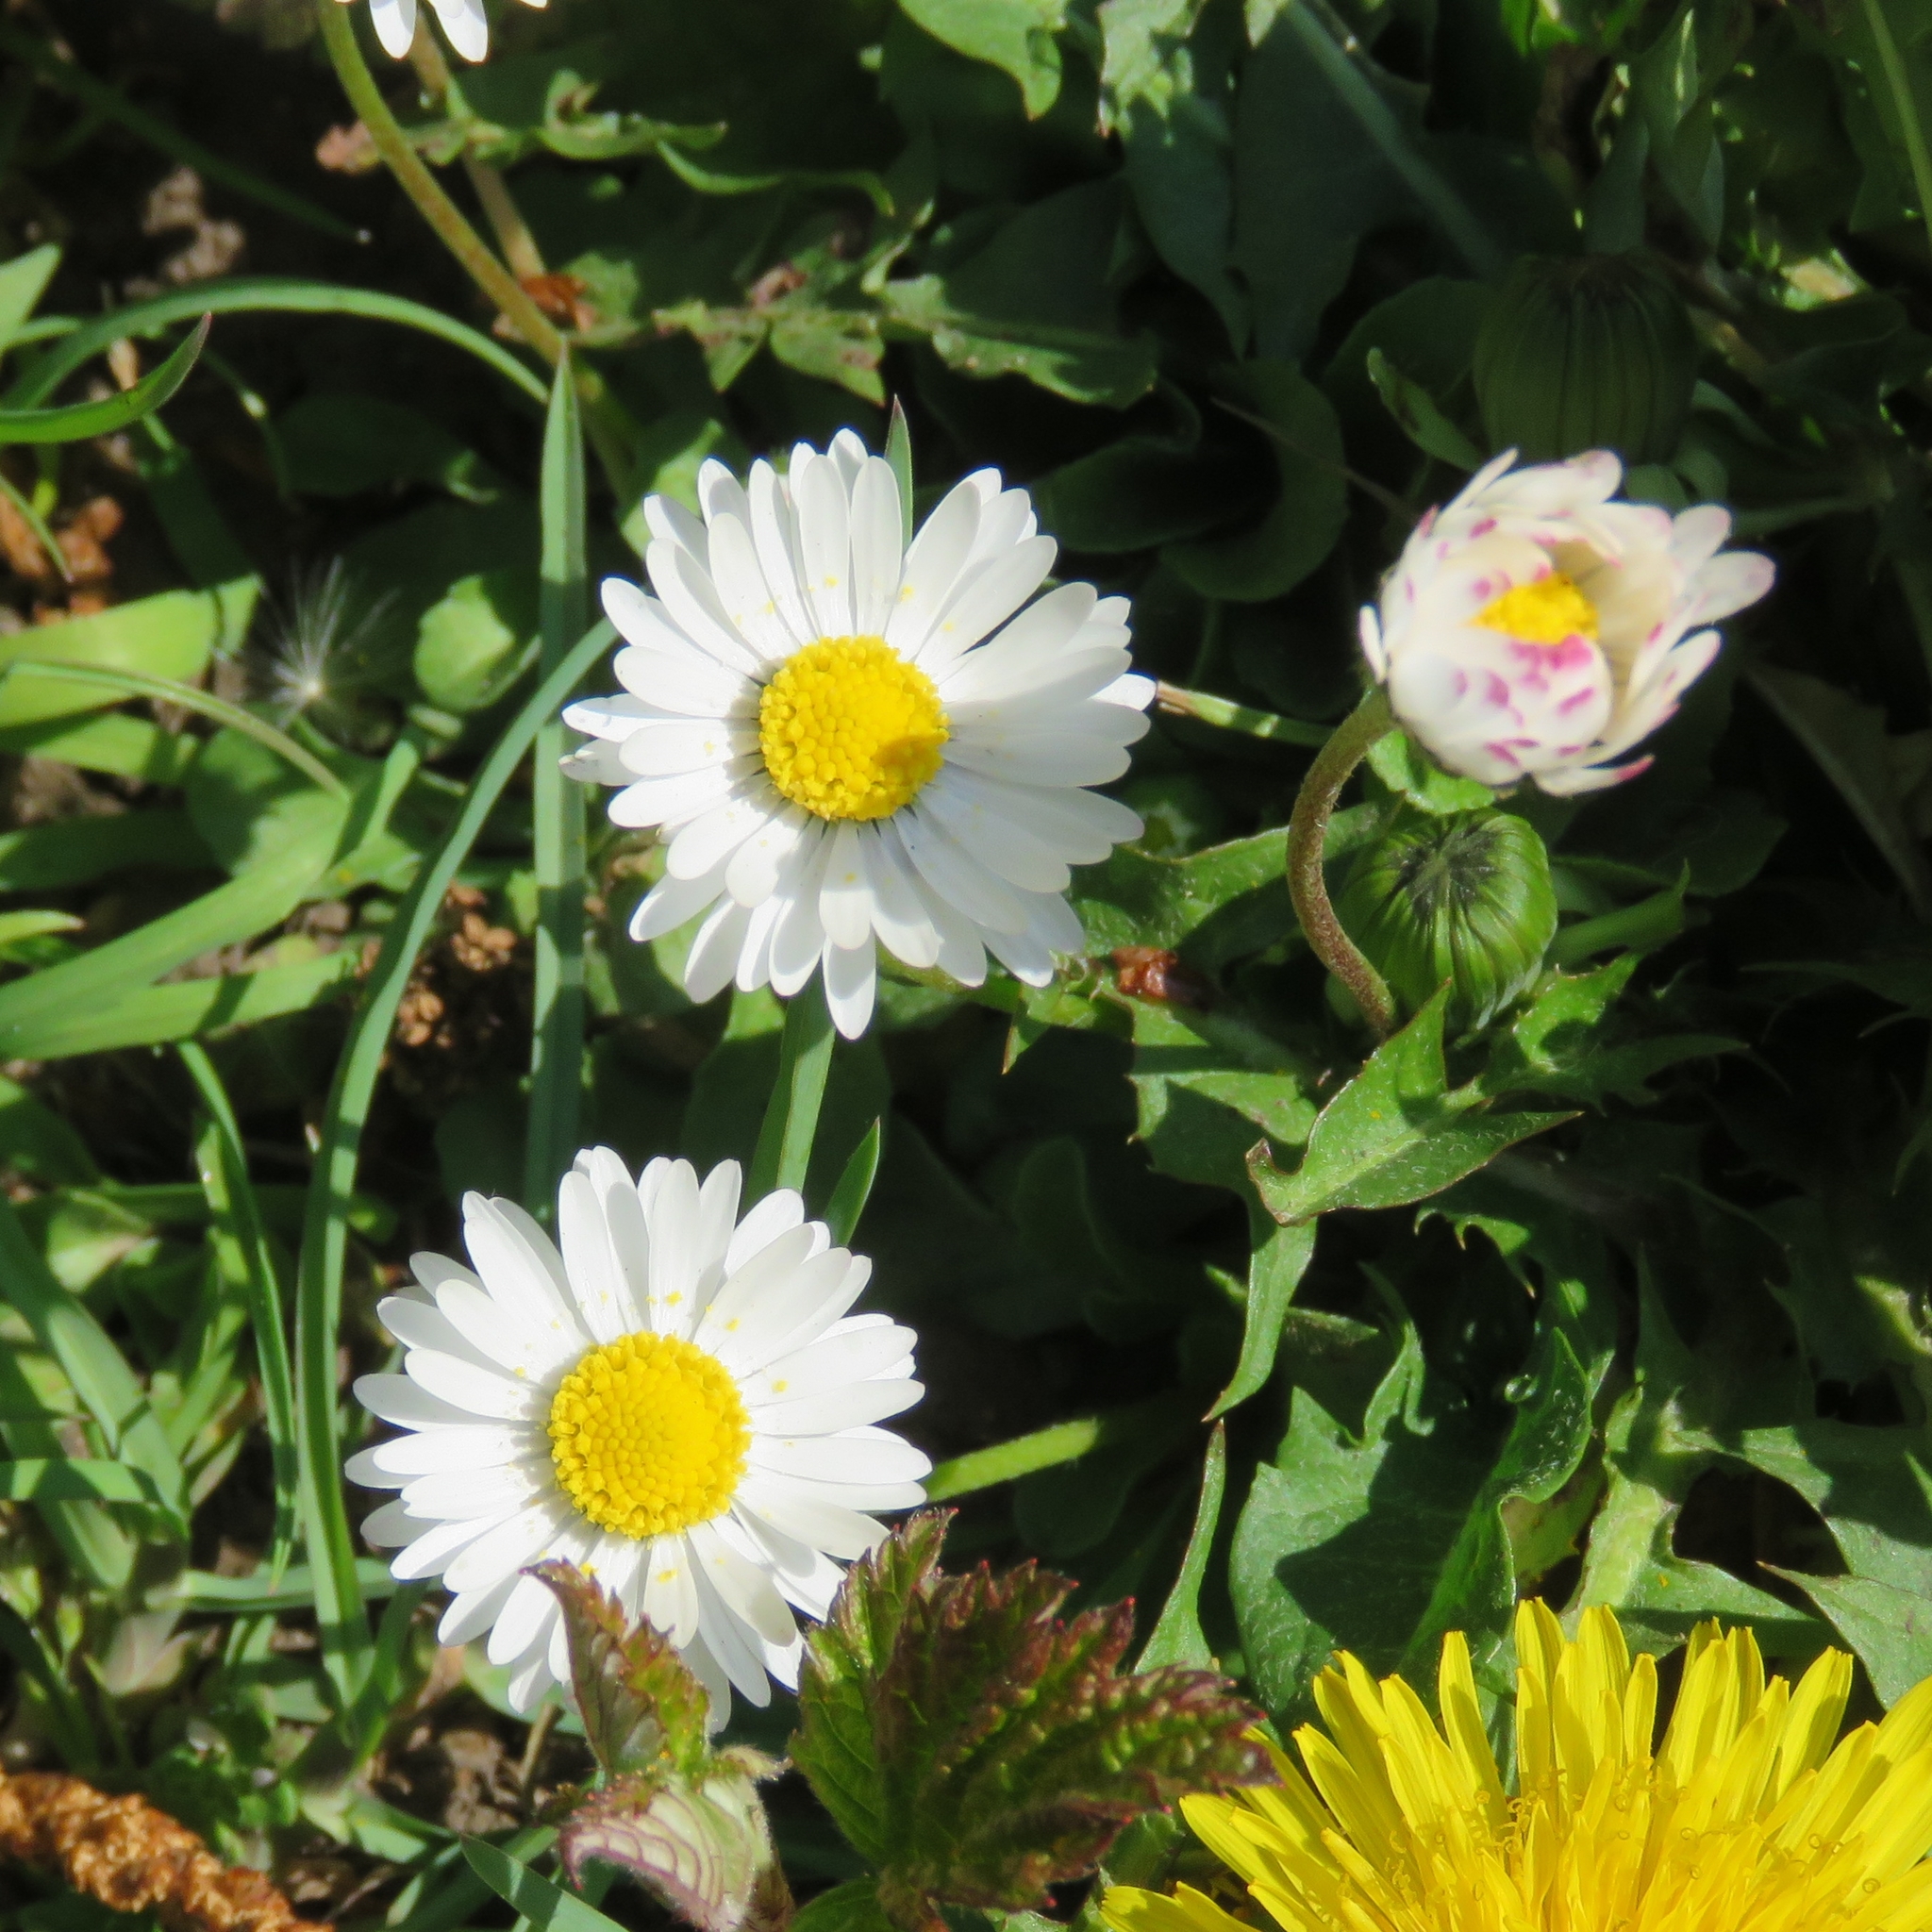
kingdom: Plantae
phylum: Tracheophyta
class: Magnoliopsida
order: Asterales
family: Asteraceae
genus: Bellis
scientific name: Bellis perennis
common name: Lawndaisy
